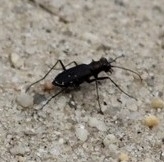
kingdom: Animalia
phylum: Arthropoda
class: Insecta
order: Coleoptera
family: Carabidae
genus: Cicindela
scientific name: Cicindela punctulata
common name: Punctured tiger beetle
